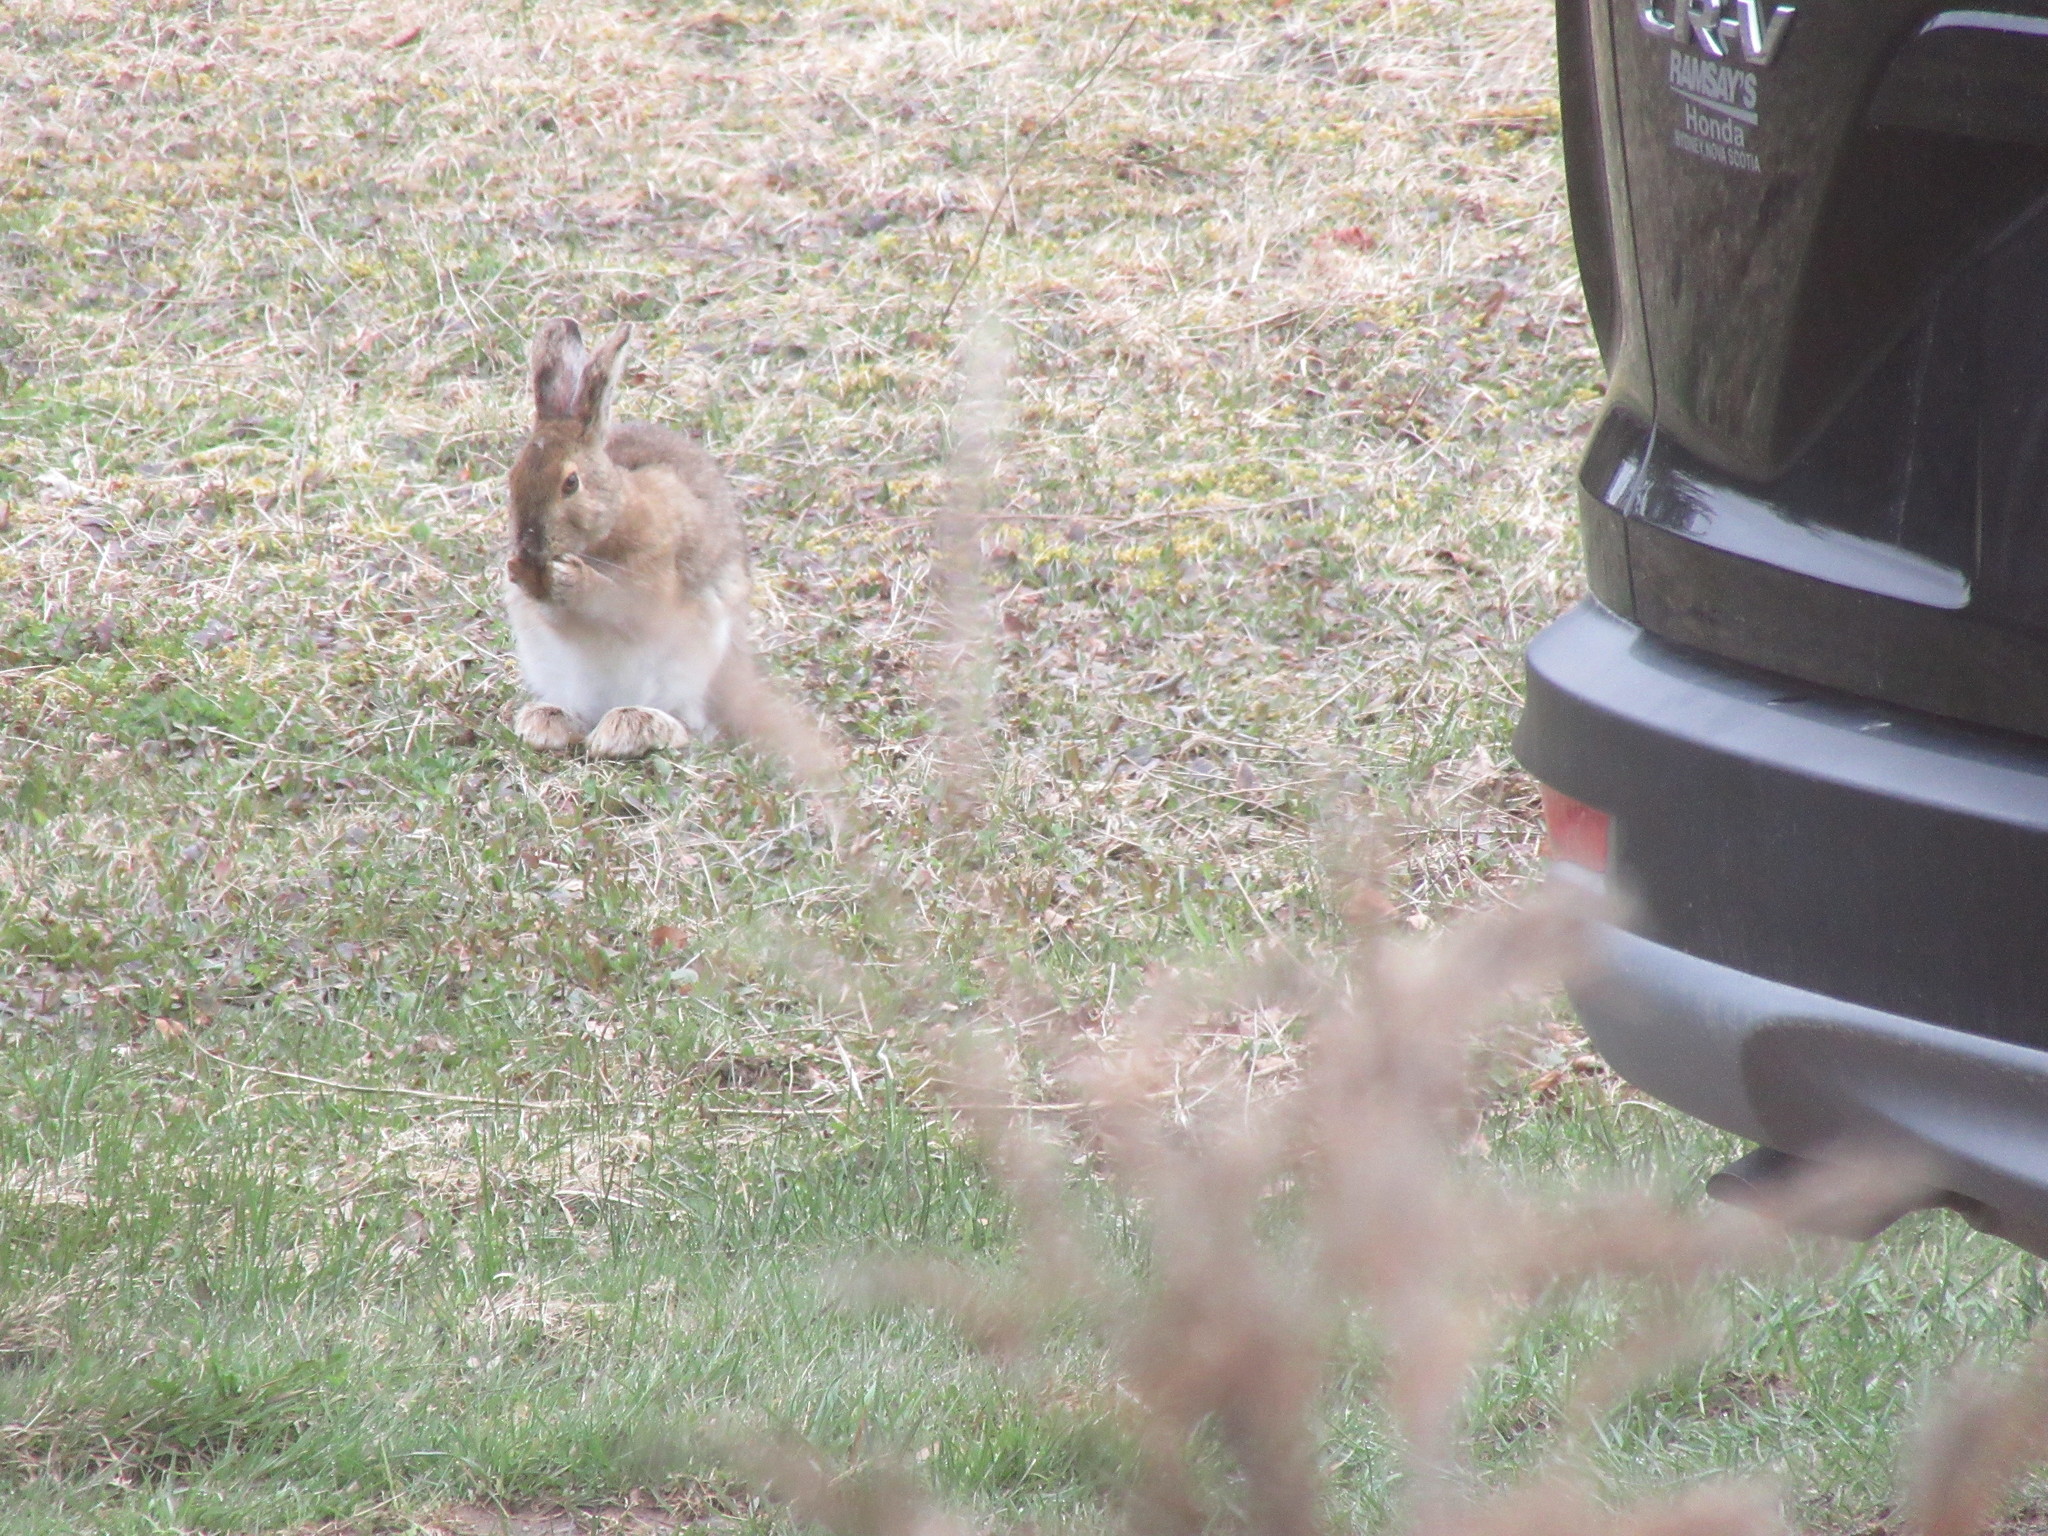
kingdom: Animalia
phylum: Chordata
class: Mammalia
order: Lagomorpha
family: Leporidae
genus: Lepus
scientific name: Lepus americanus
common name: Snowshoe hare
